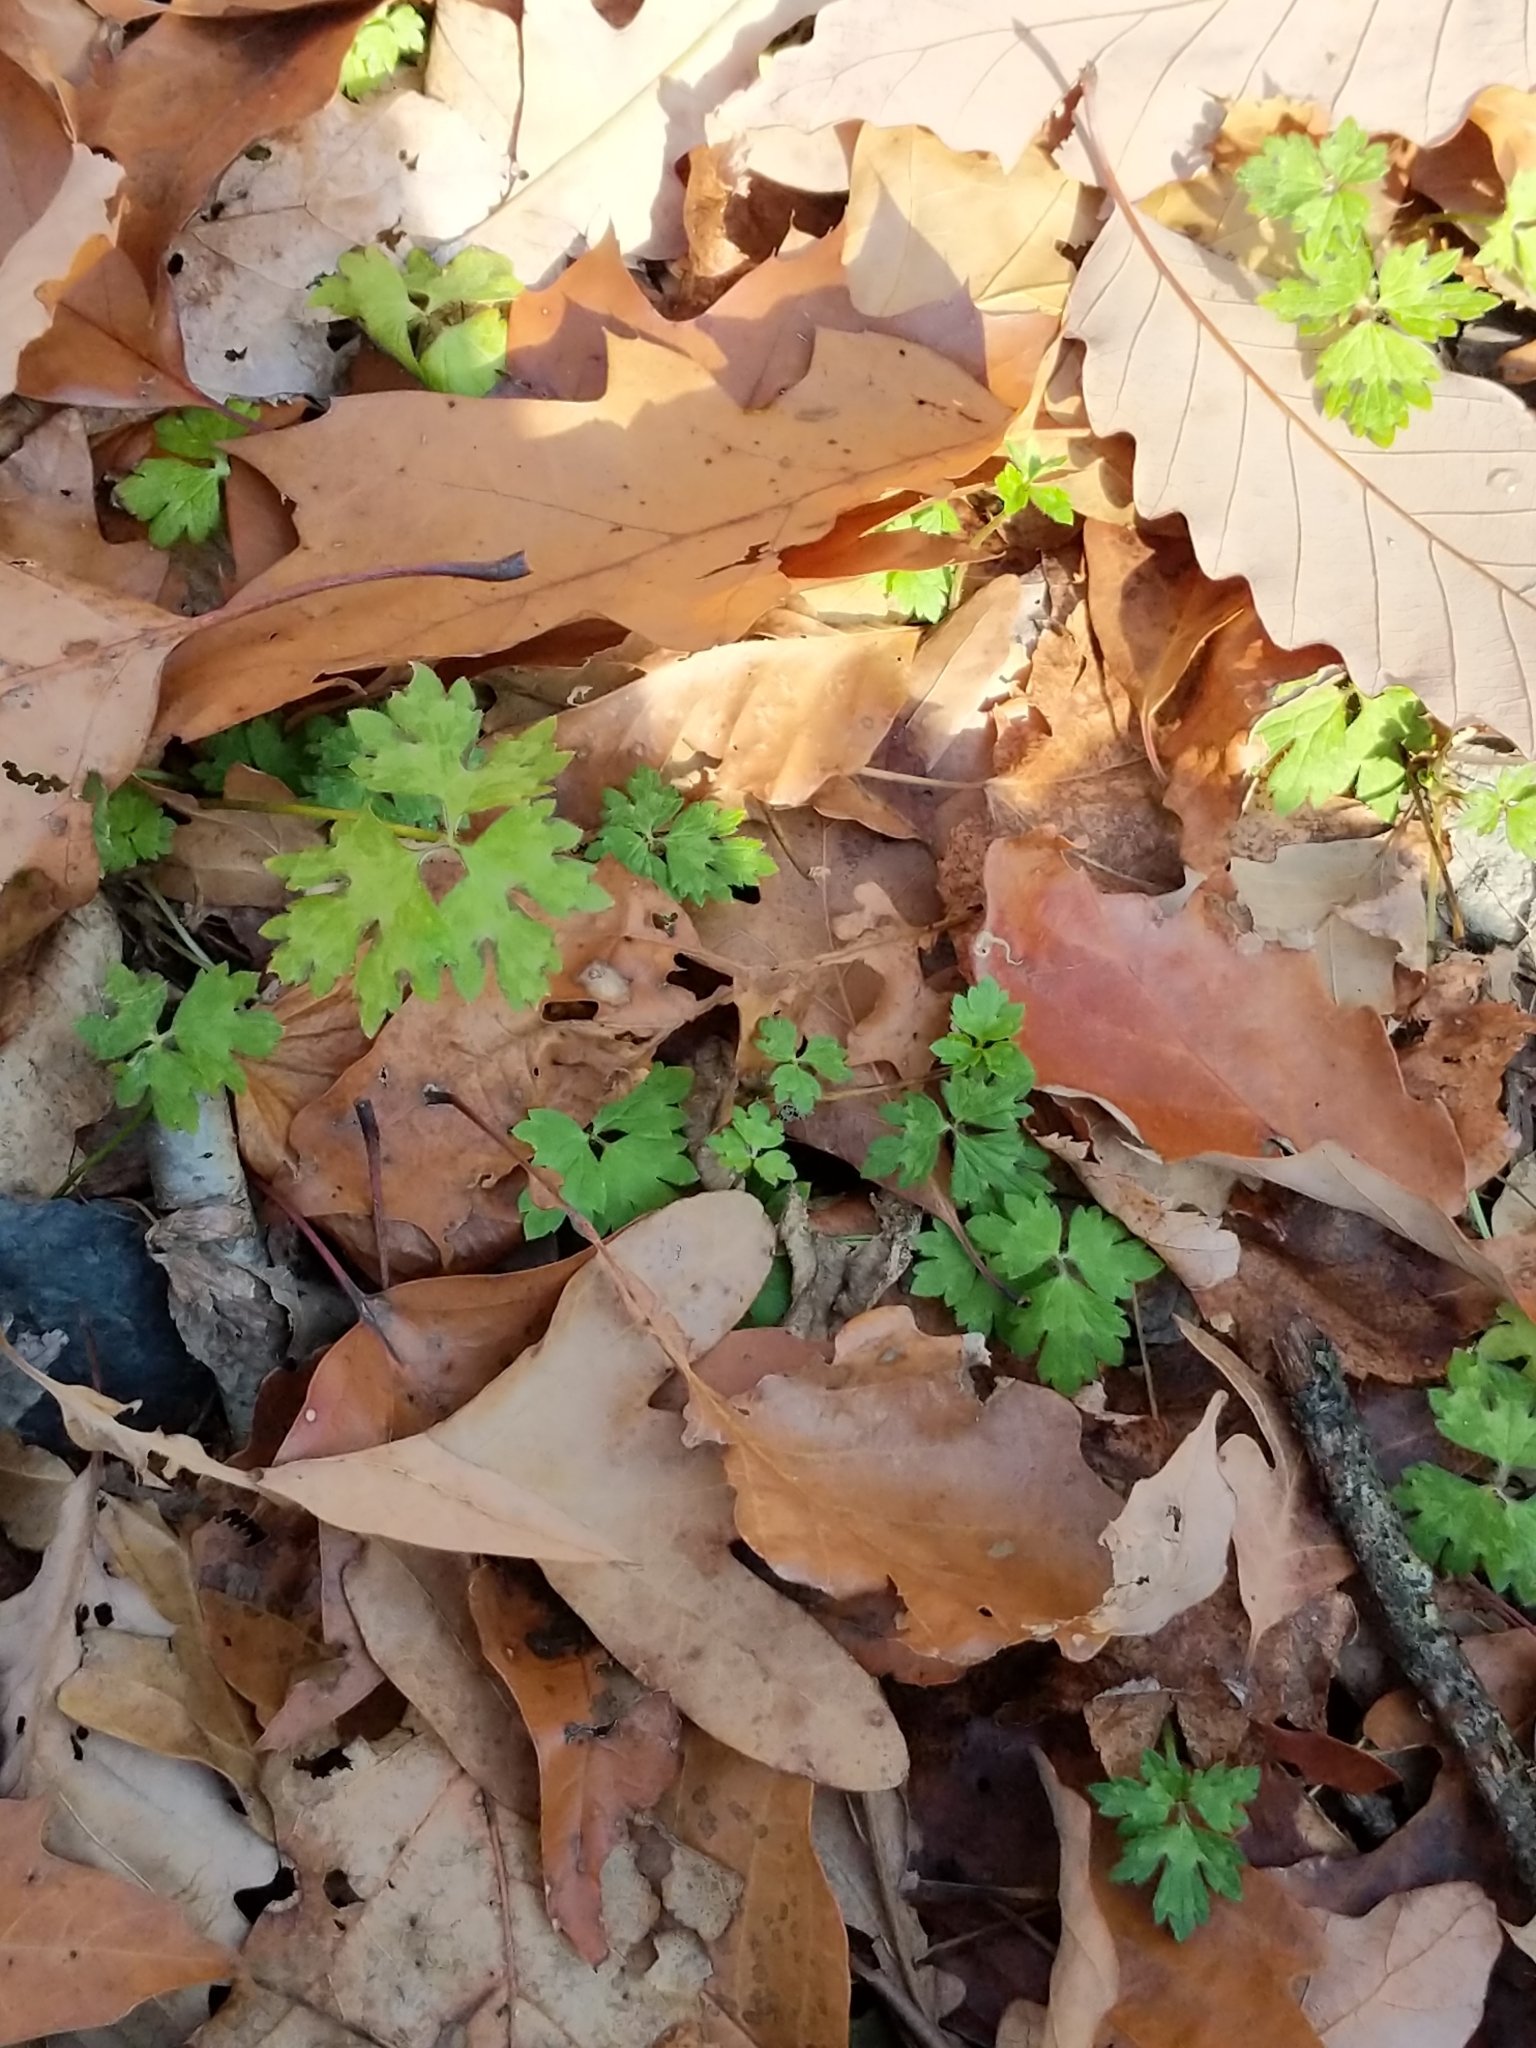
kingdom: Plantae
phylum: Tracheophyta
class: Magnoliopsida
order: Ranunculales
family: Ranunculaceae
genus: Ranunculus
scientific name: Ranunculus repens
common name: Creeping buttercup
